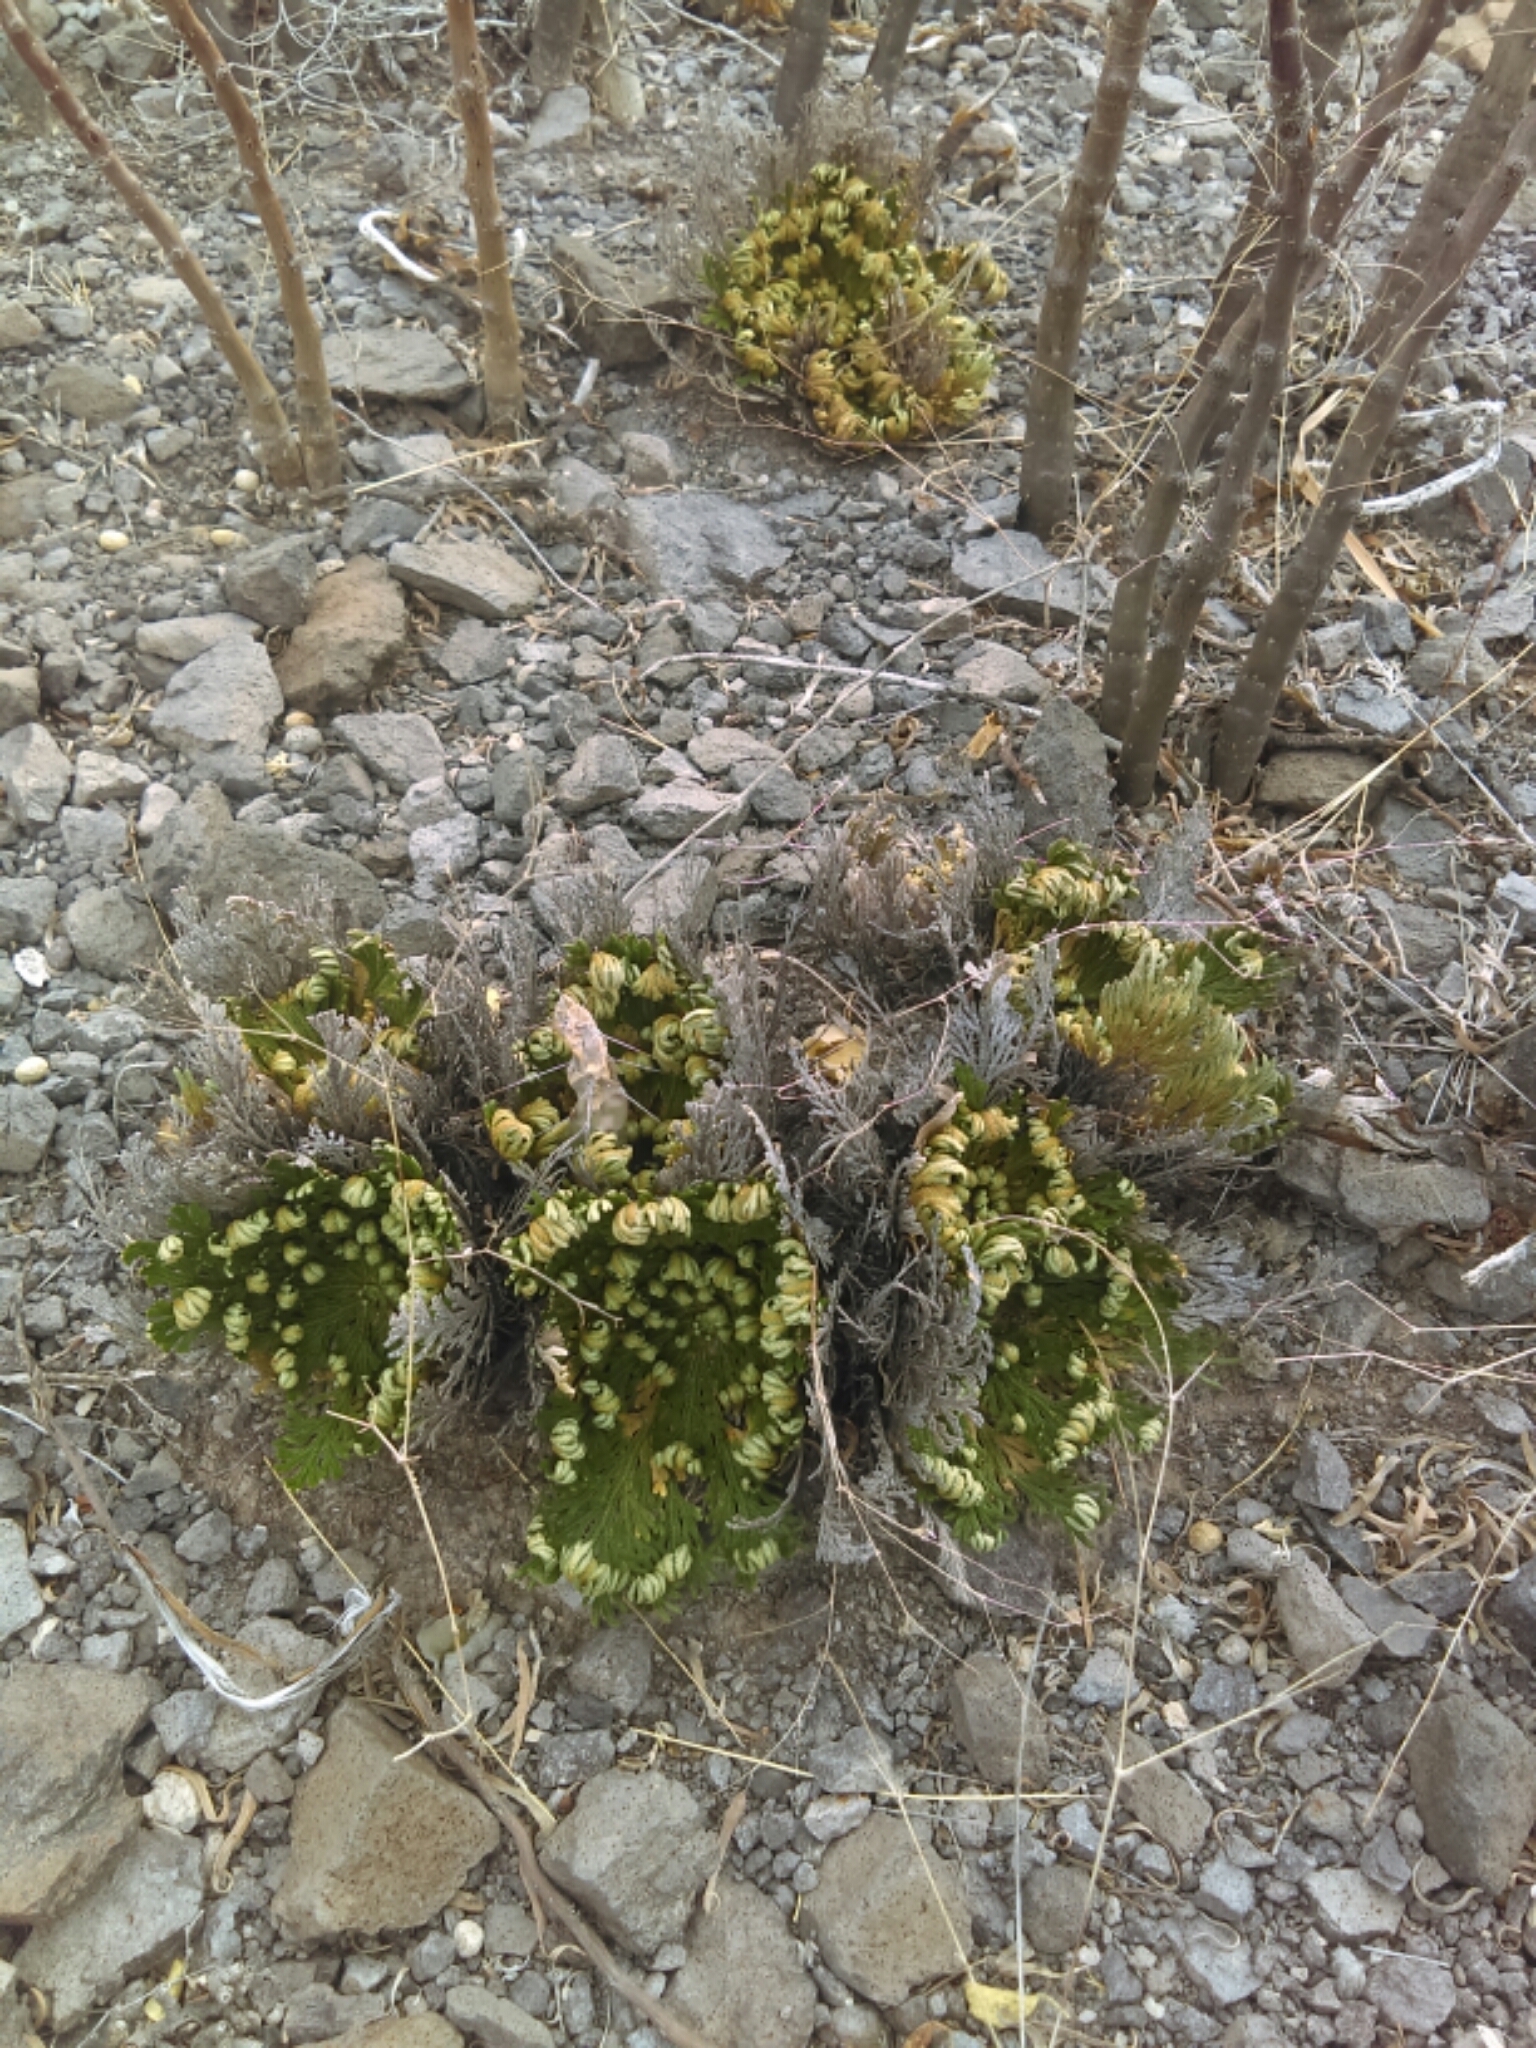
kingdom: Plantae
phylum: Tracheophyta
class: Lycopodiopsida
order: Selaginellales
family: Selaginellaceae
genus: Selaginella
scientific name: Selaginella lepidophylla
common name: Rose-of-jericho
